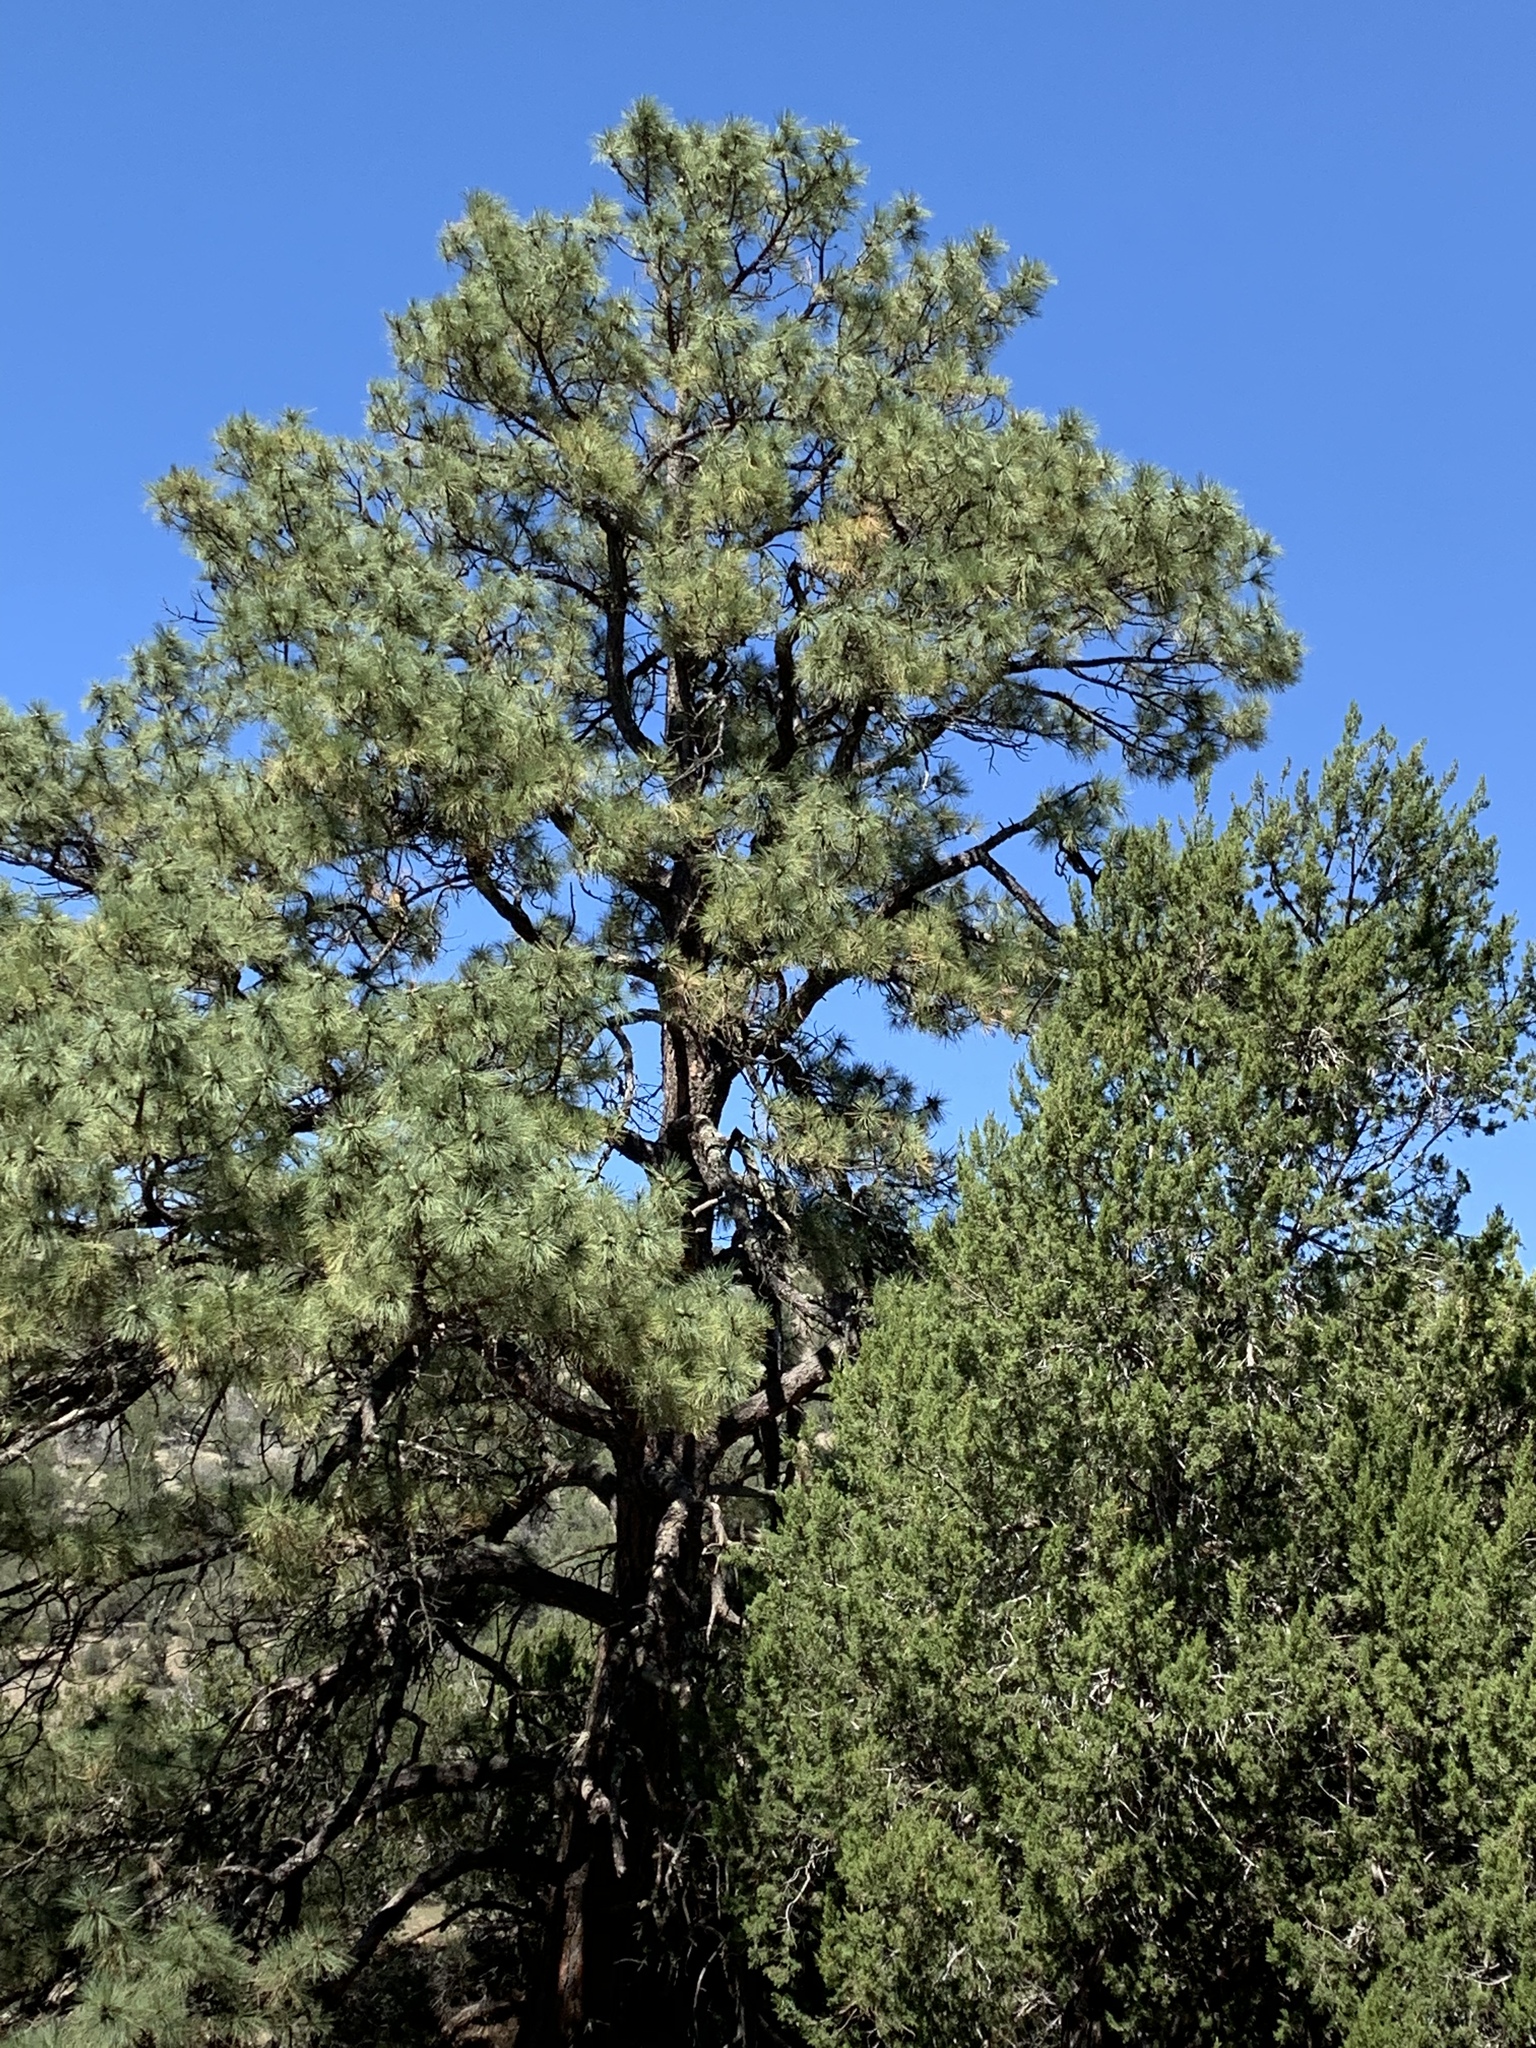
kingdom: Plantae
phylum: Tracheophyta
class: Pinopsida
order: Pinales
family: Pinaceae
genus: Pinus
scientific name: Pinus ponderosa
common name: Western yellow-pine
